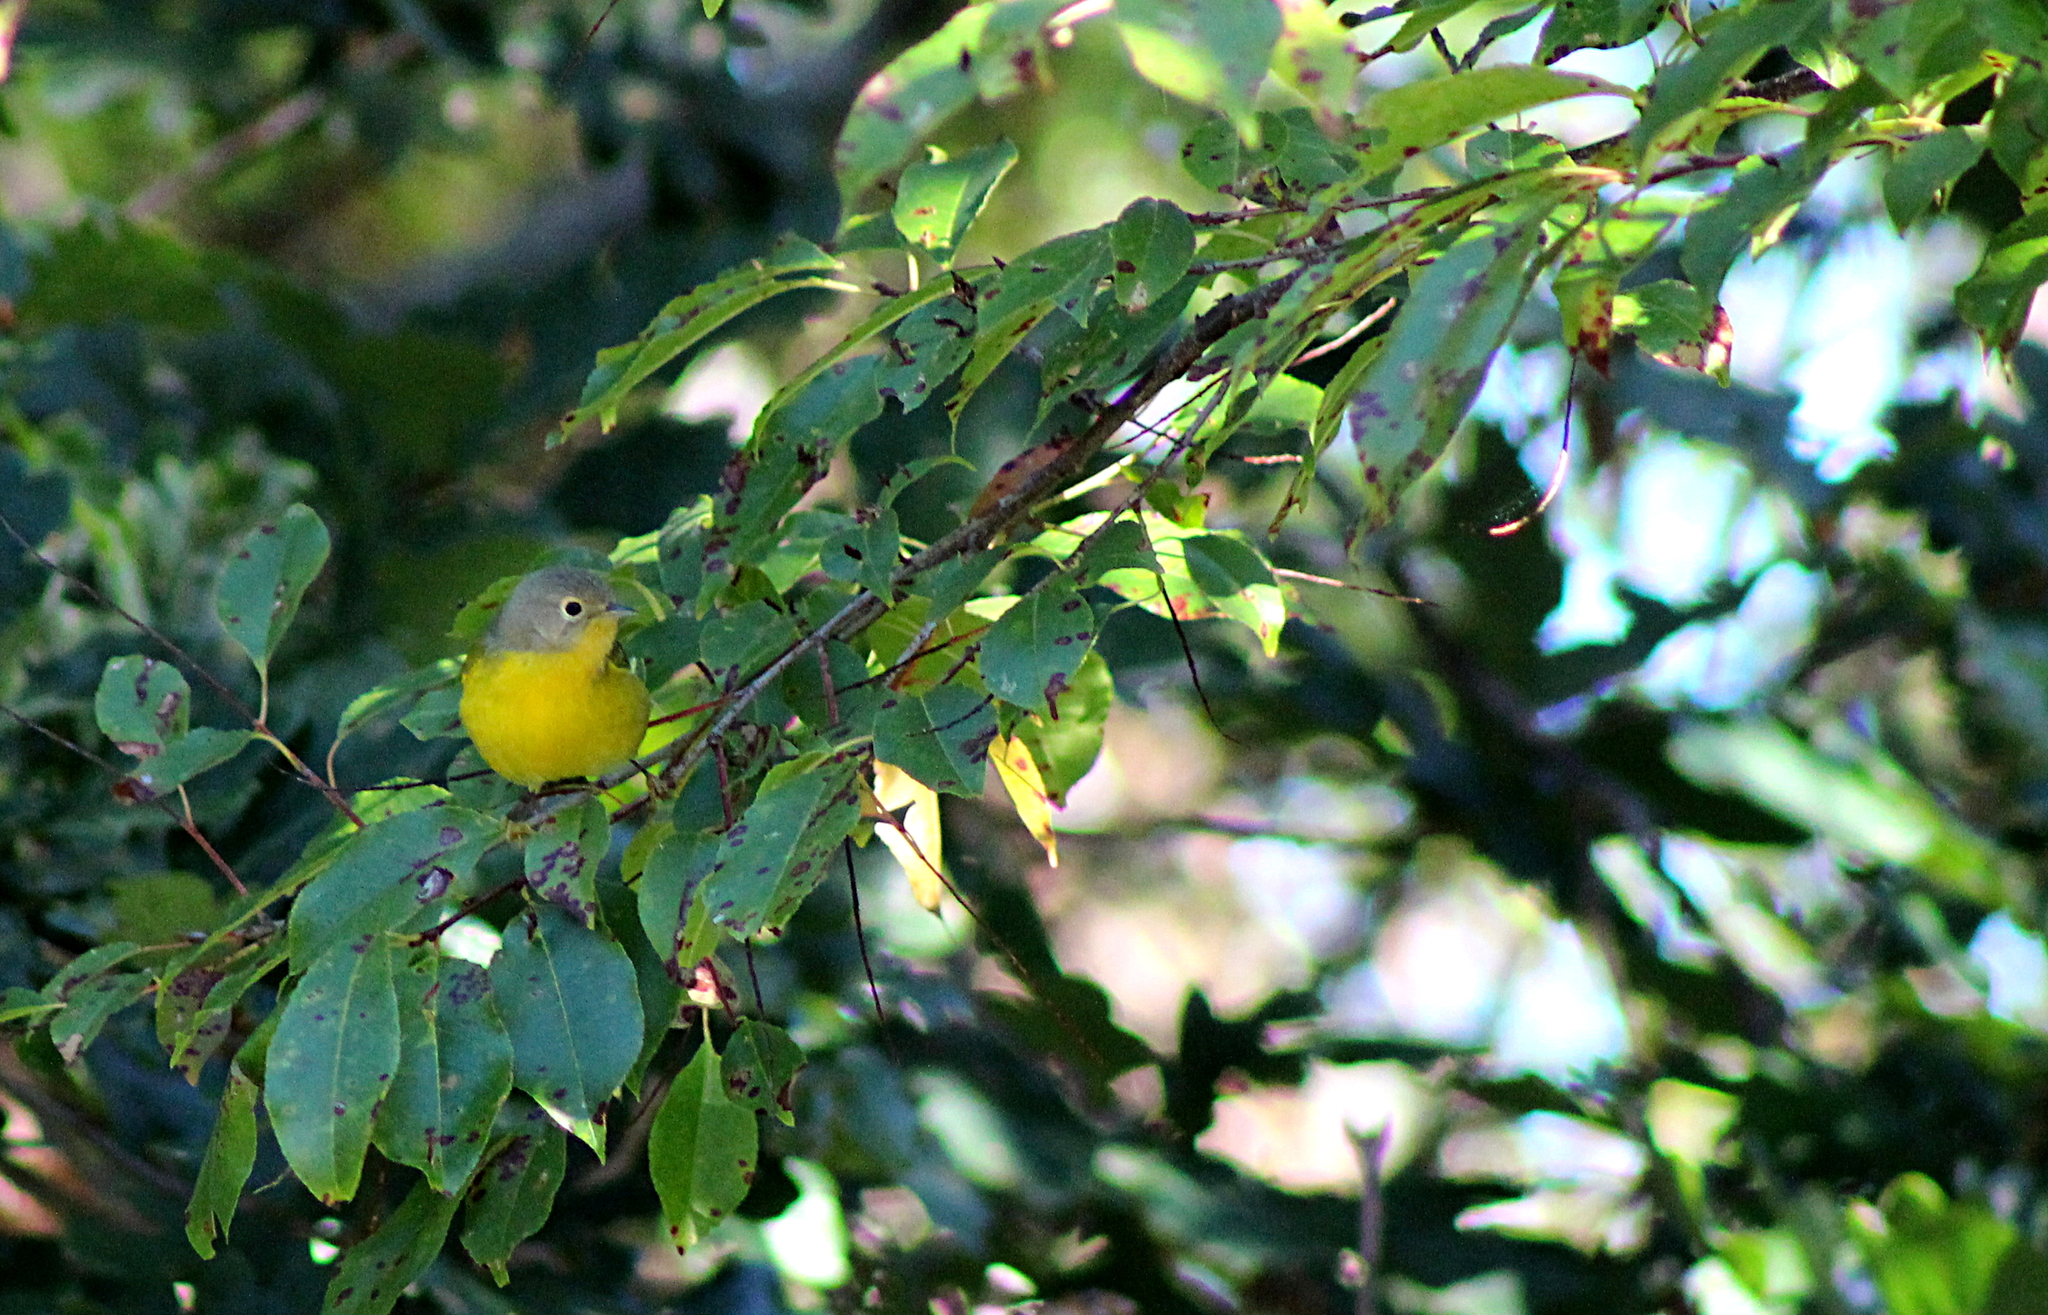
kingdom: Animalia
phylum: Chordata
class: Aves
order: Passeriformes
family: Parulidae
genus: Leiothlypis
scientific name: Leiothlypis ruficapilla
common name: Nashville warbler
